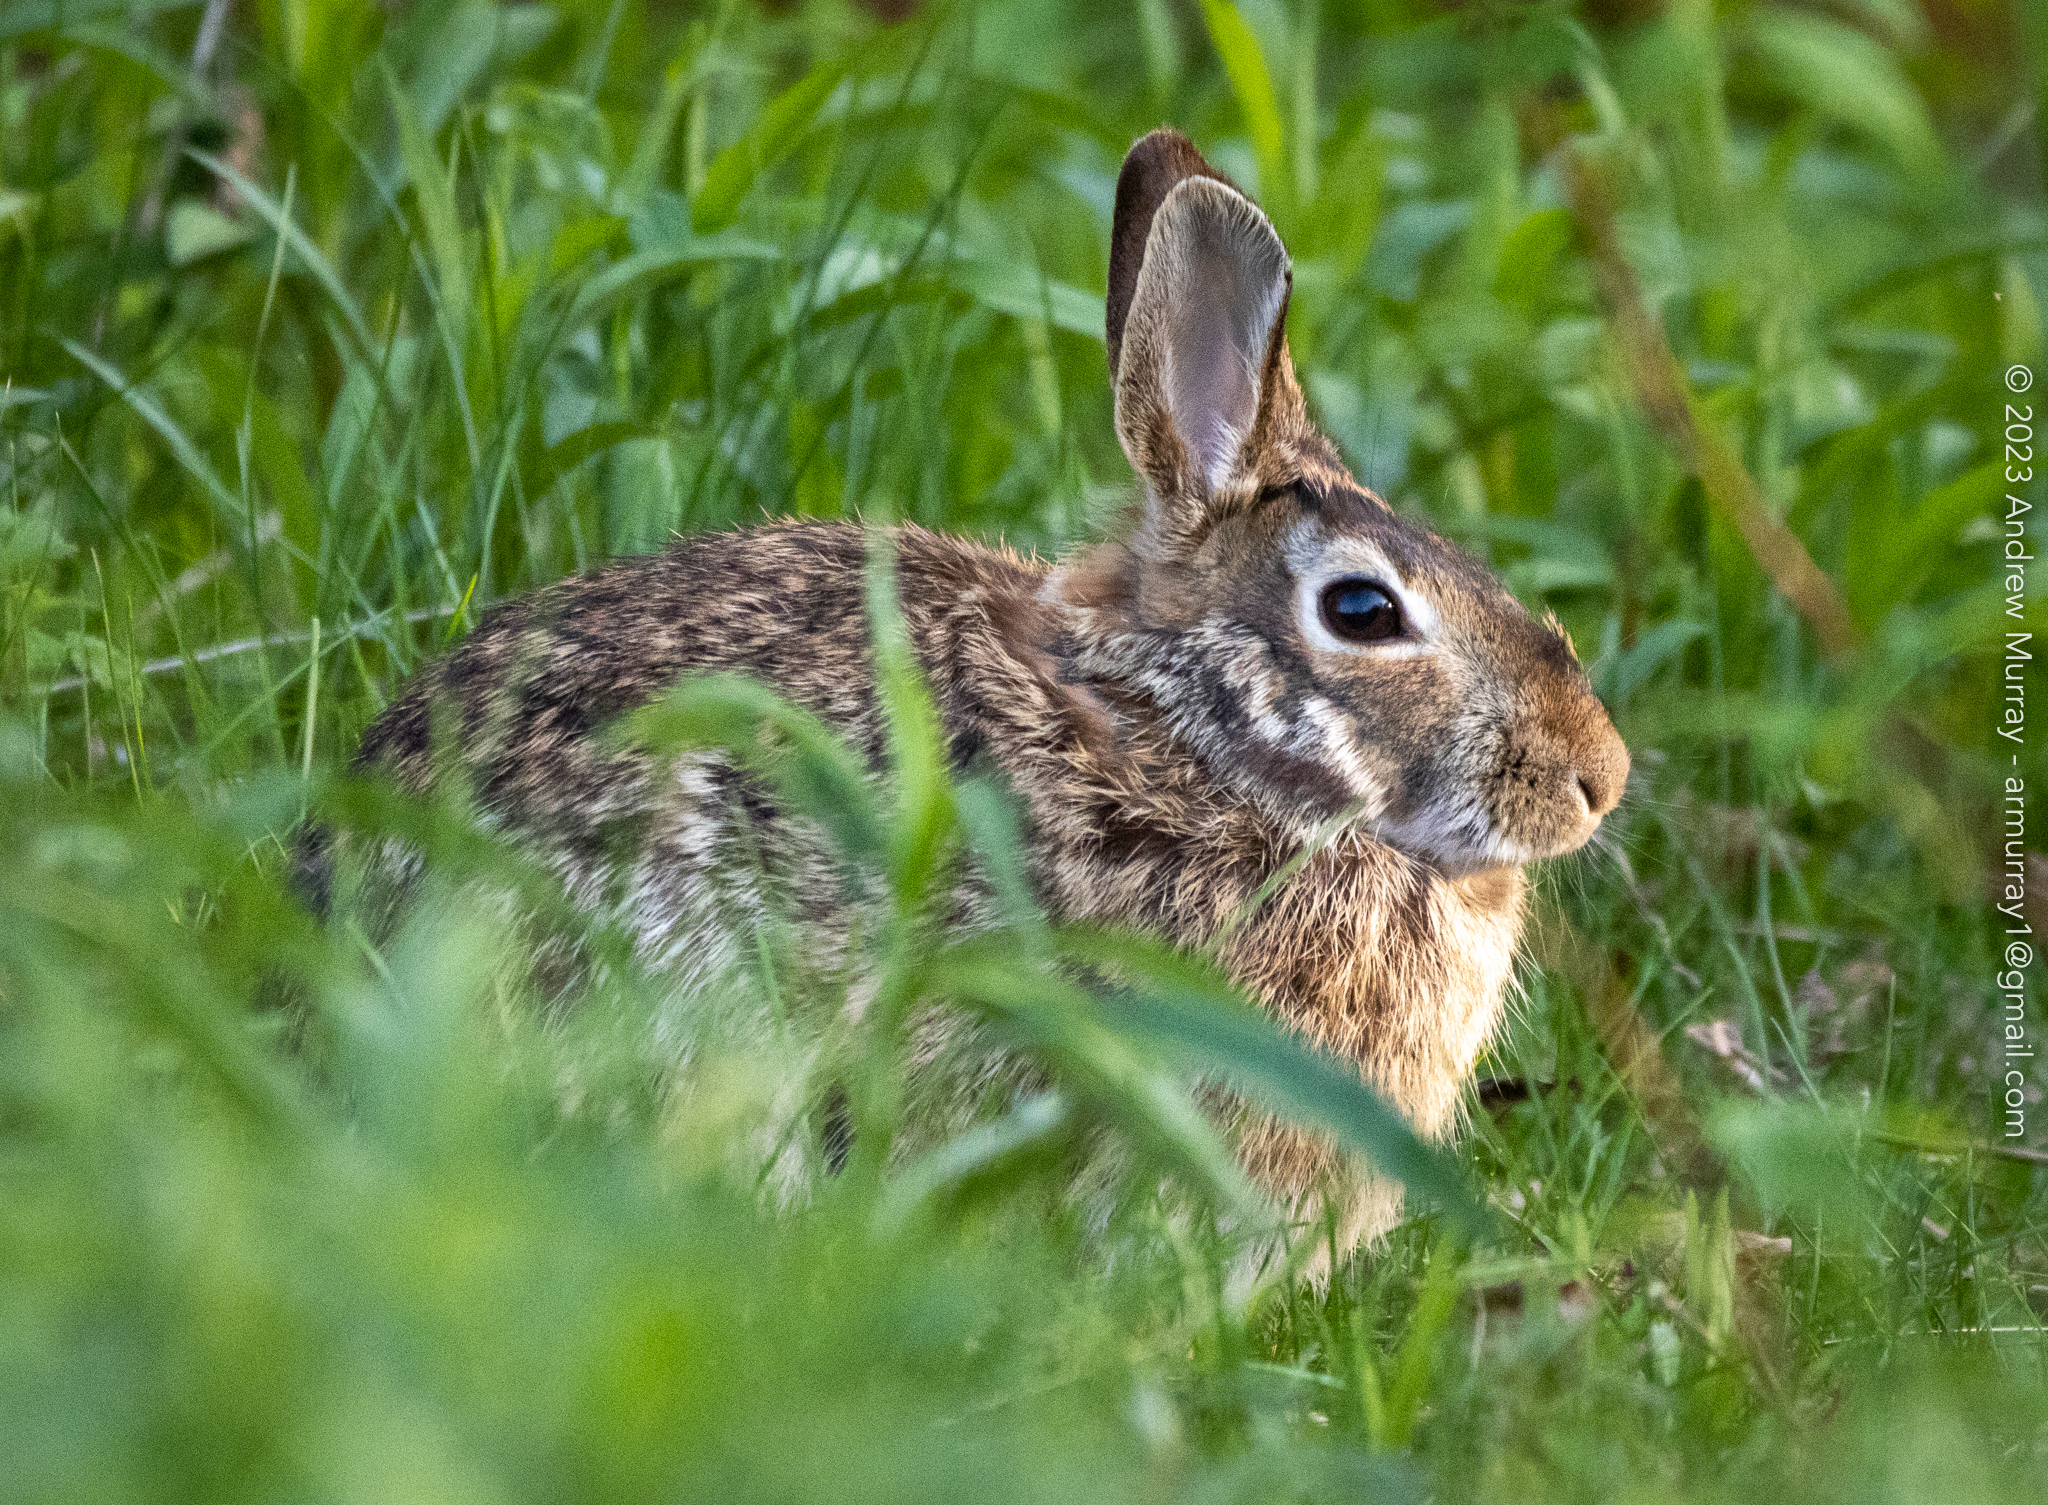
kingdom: Animalia
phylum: Chordata
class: Mammalia
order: Lagomorpha
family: Leporidae
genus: Sylvilagus
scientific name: Sylvilagus floridanus
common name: Eastern cottontail
